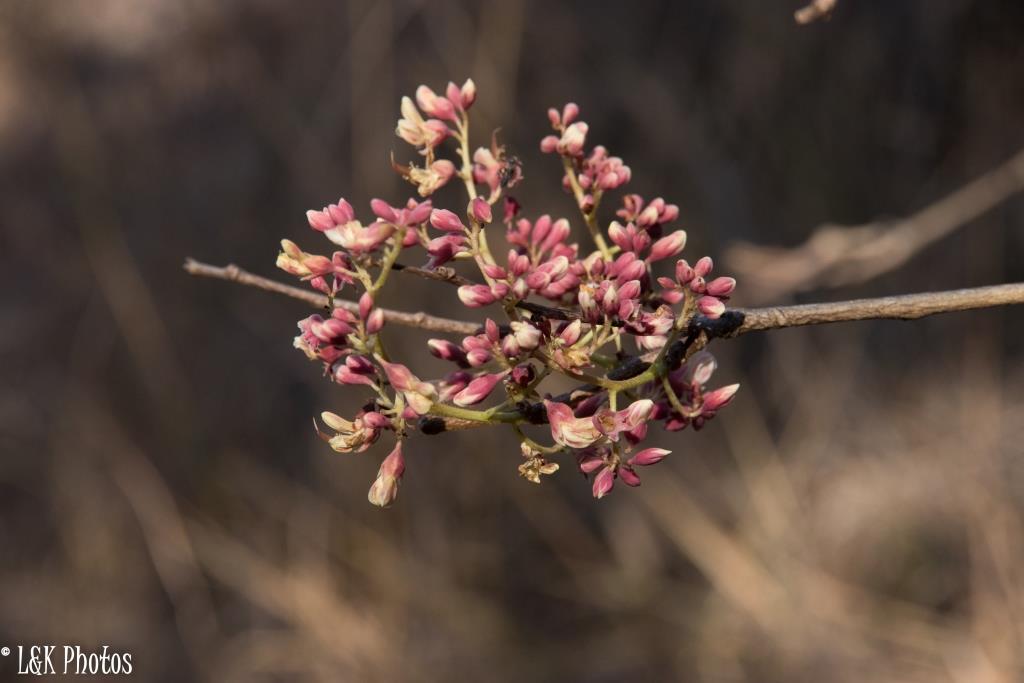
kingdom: Plantae
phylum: Tracheophyta
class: Magnoliopsida
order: Fabales
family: Fabaceae
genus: Dalbergia
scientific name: Dalbergia pervillei
